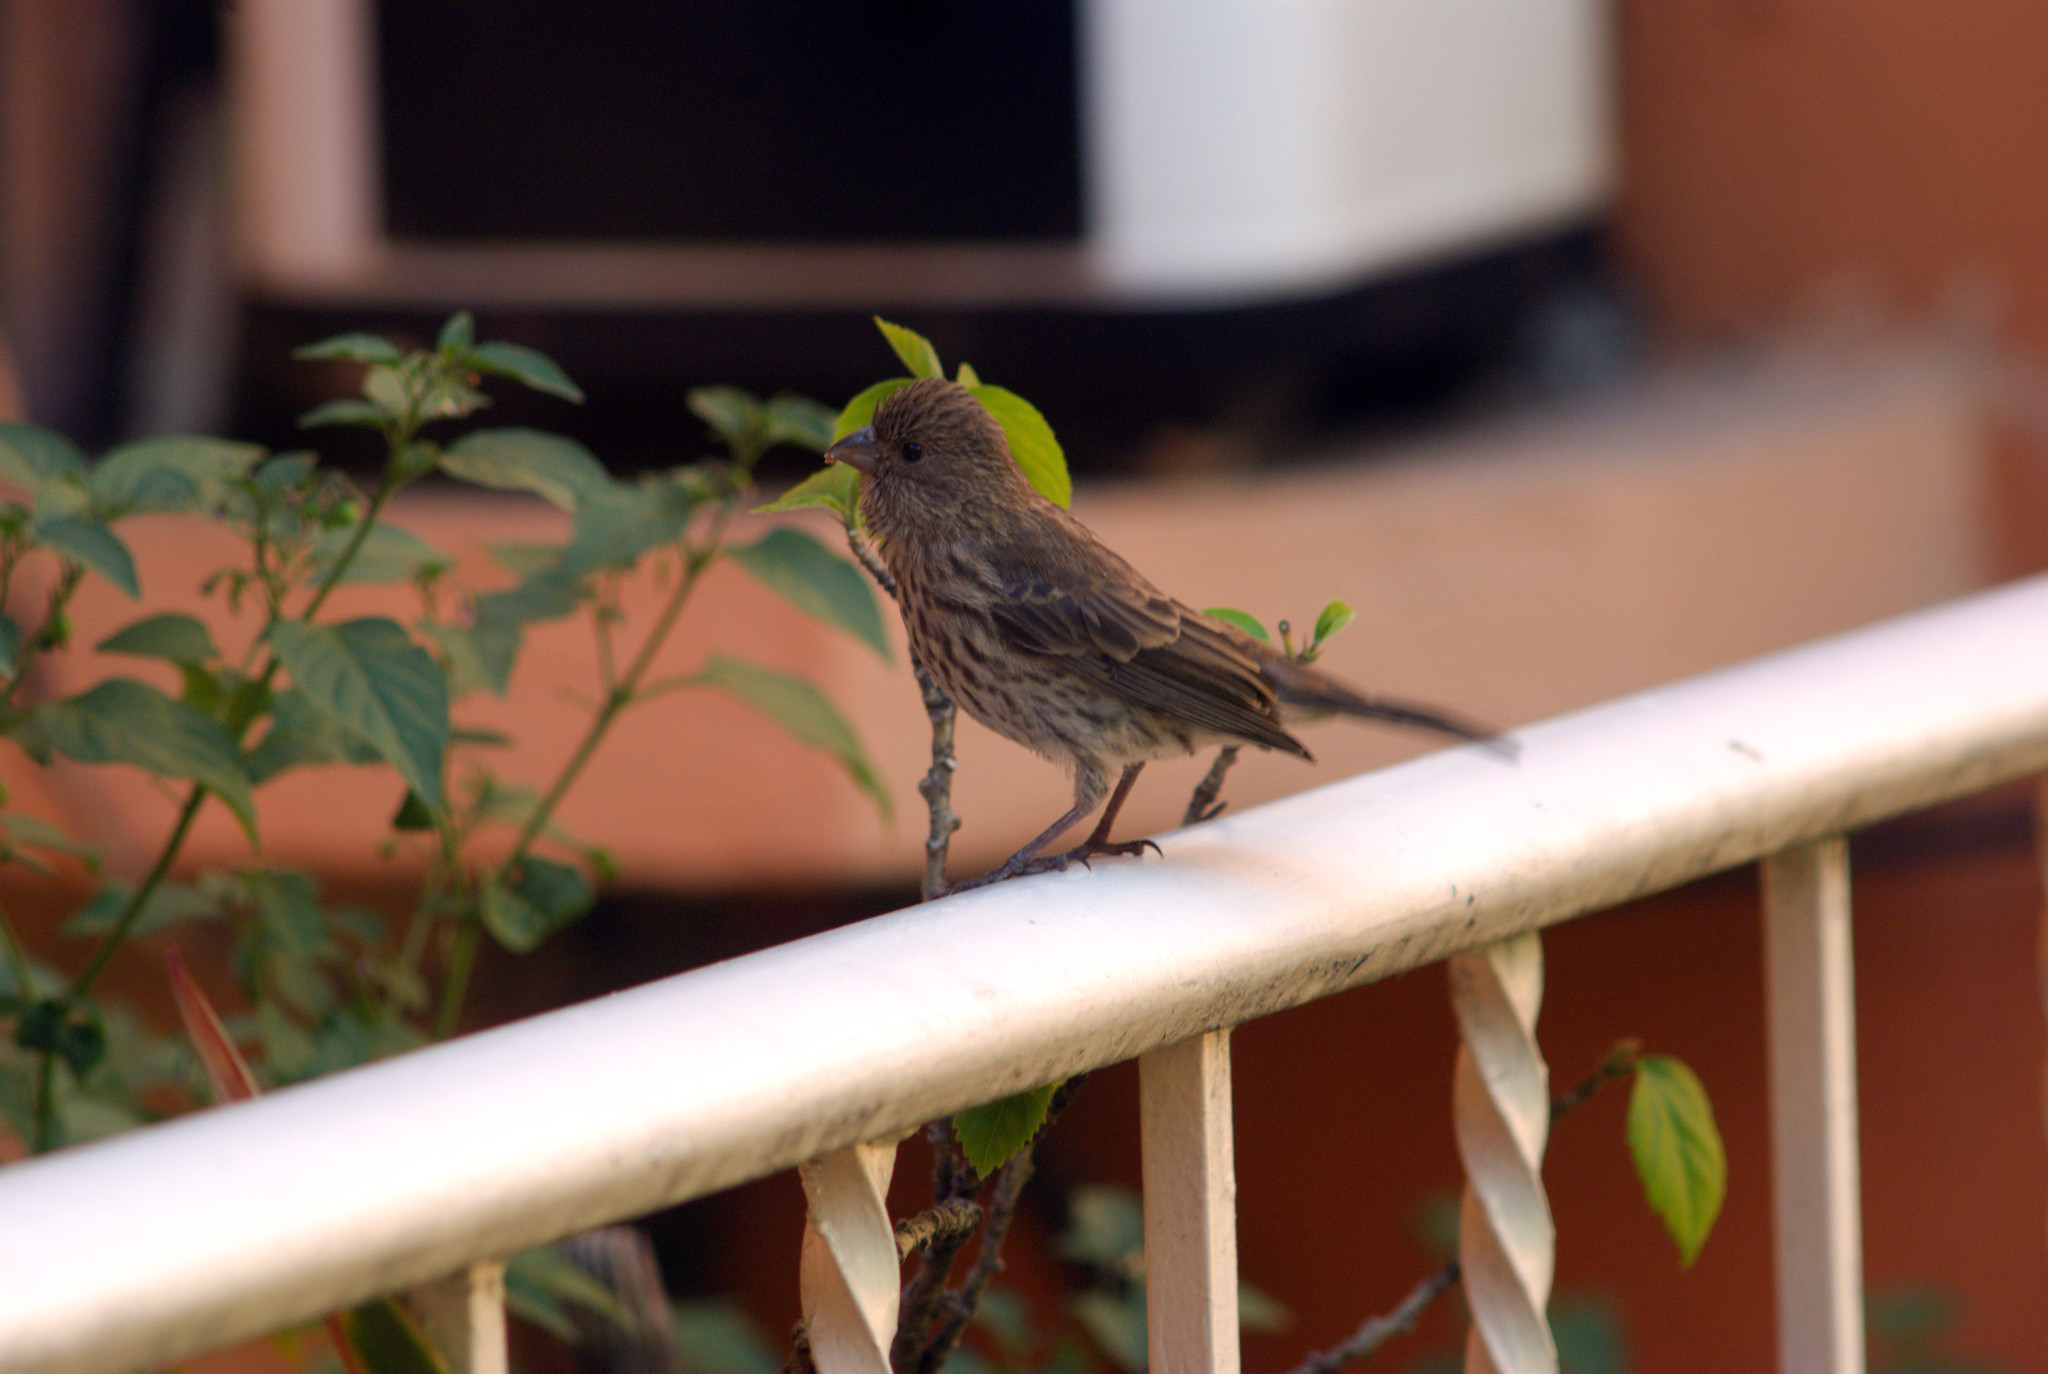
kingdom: Animalia
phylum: Chordata
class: Aves
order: Passeriformes
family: Fringillidae
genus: Haemorhous
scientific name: Haemorhous mexicanus
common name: House finch
